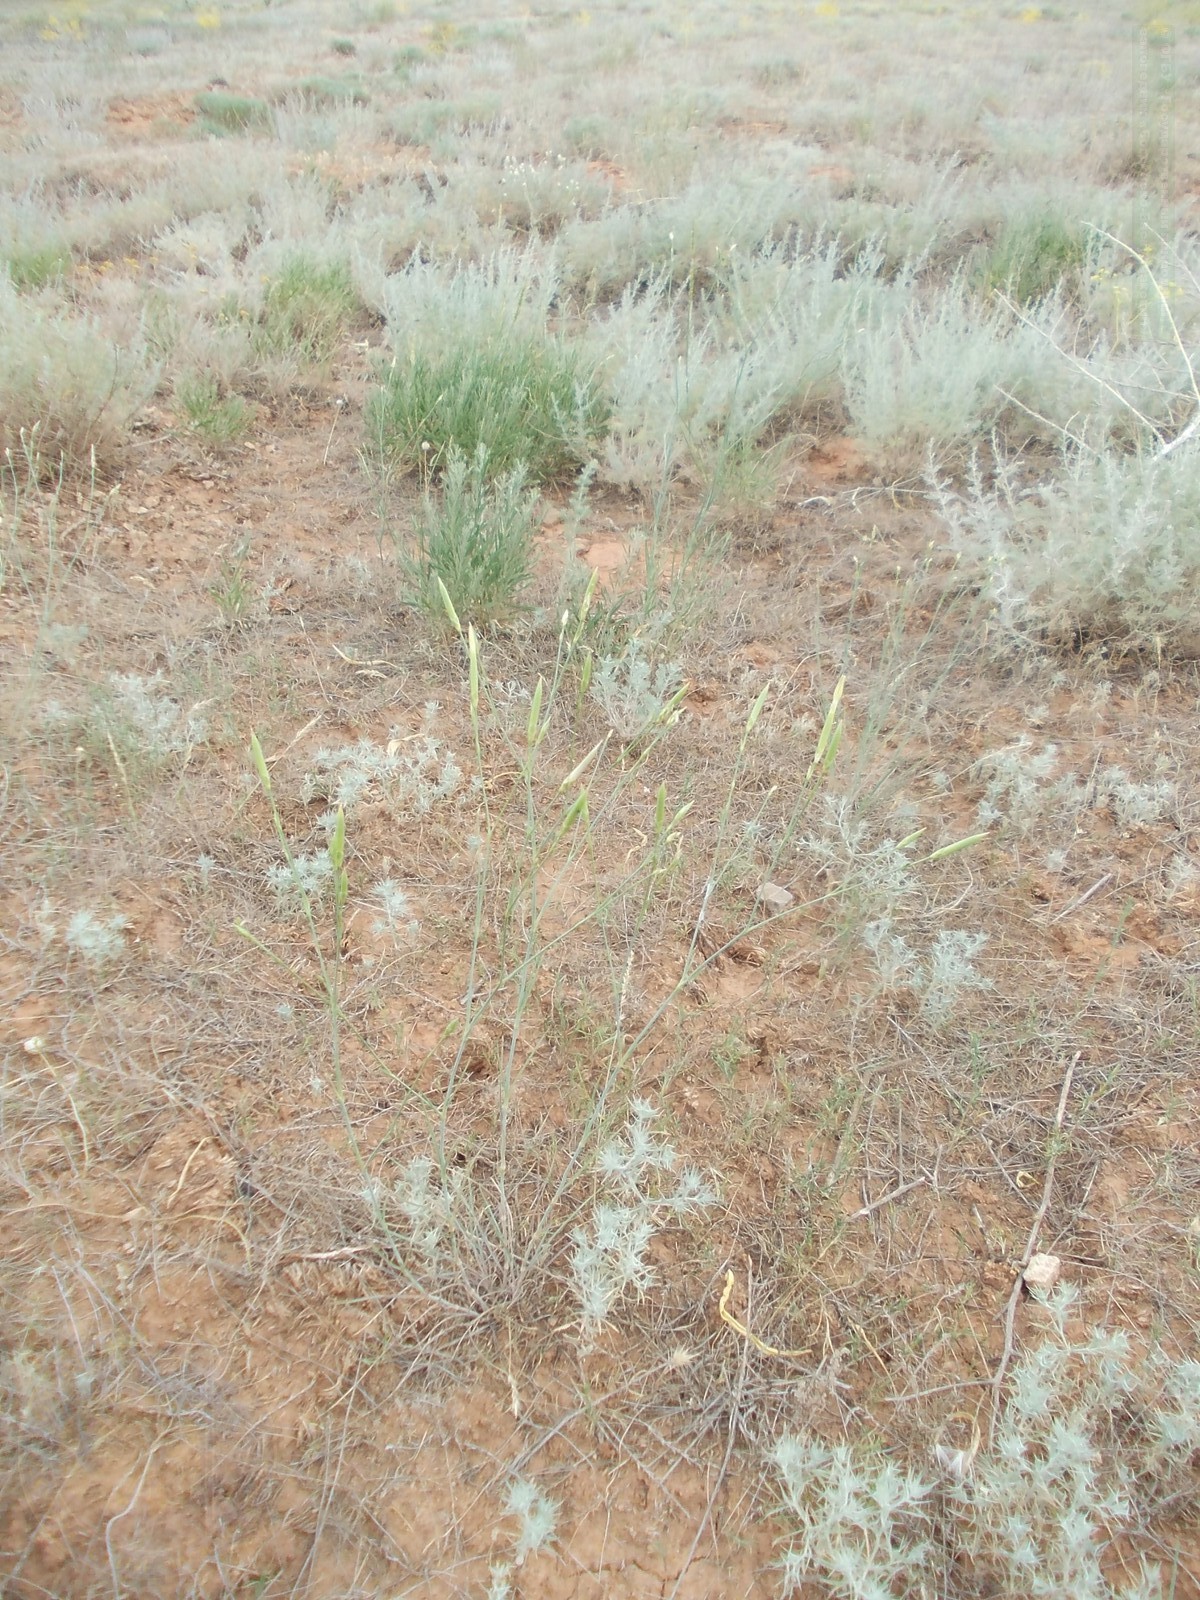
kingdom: Plantae
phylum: Tracheophyta
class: Magnoliopsida
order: Caryophyllales
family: Caryophyllaceae
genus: Dianthus
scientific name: Dianthus leptopetalus
